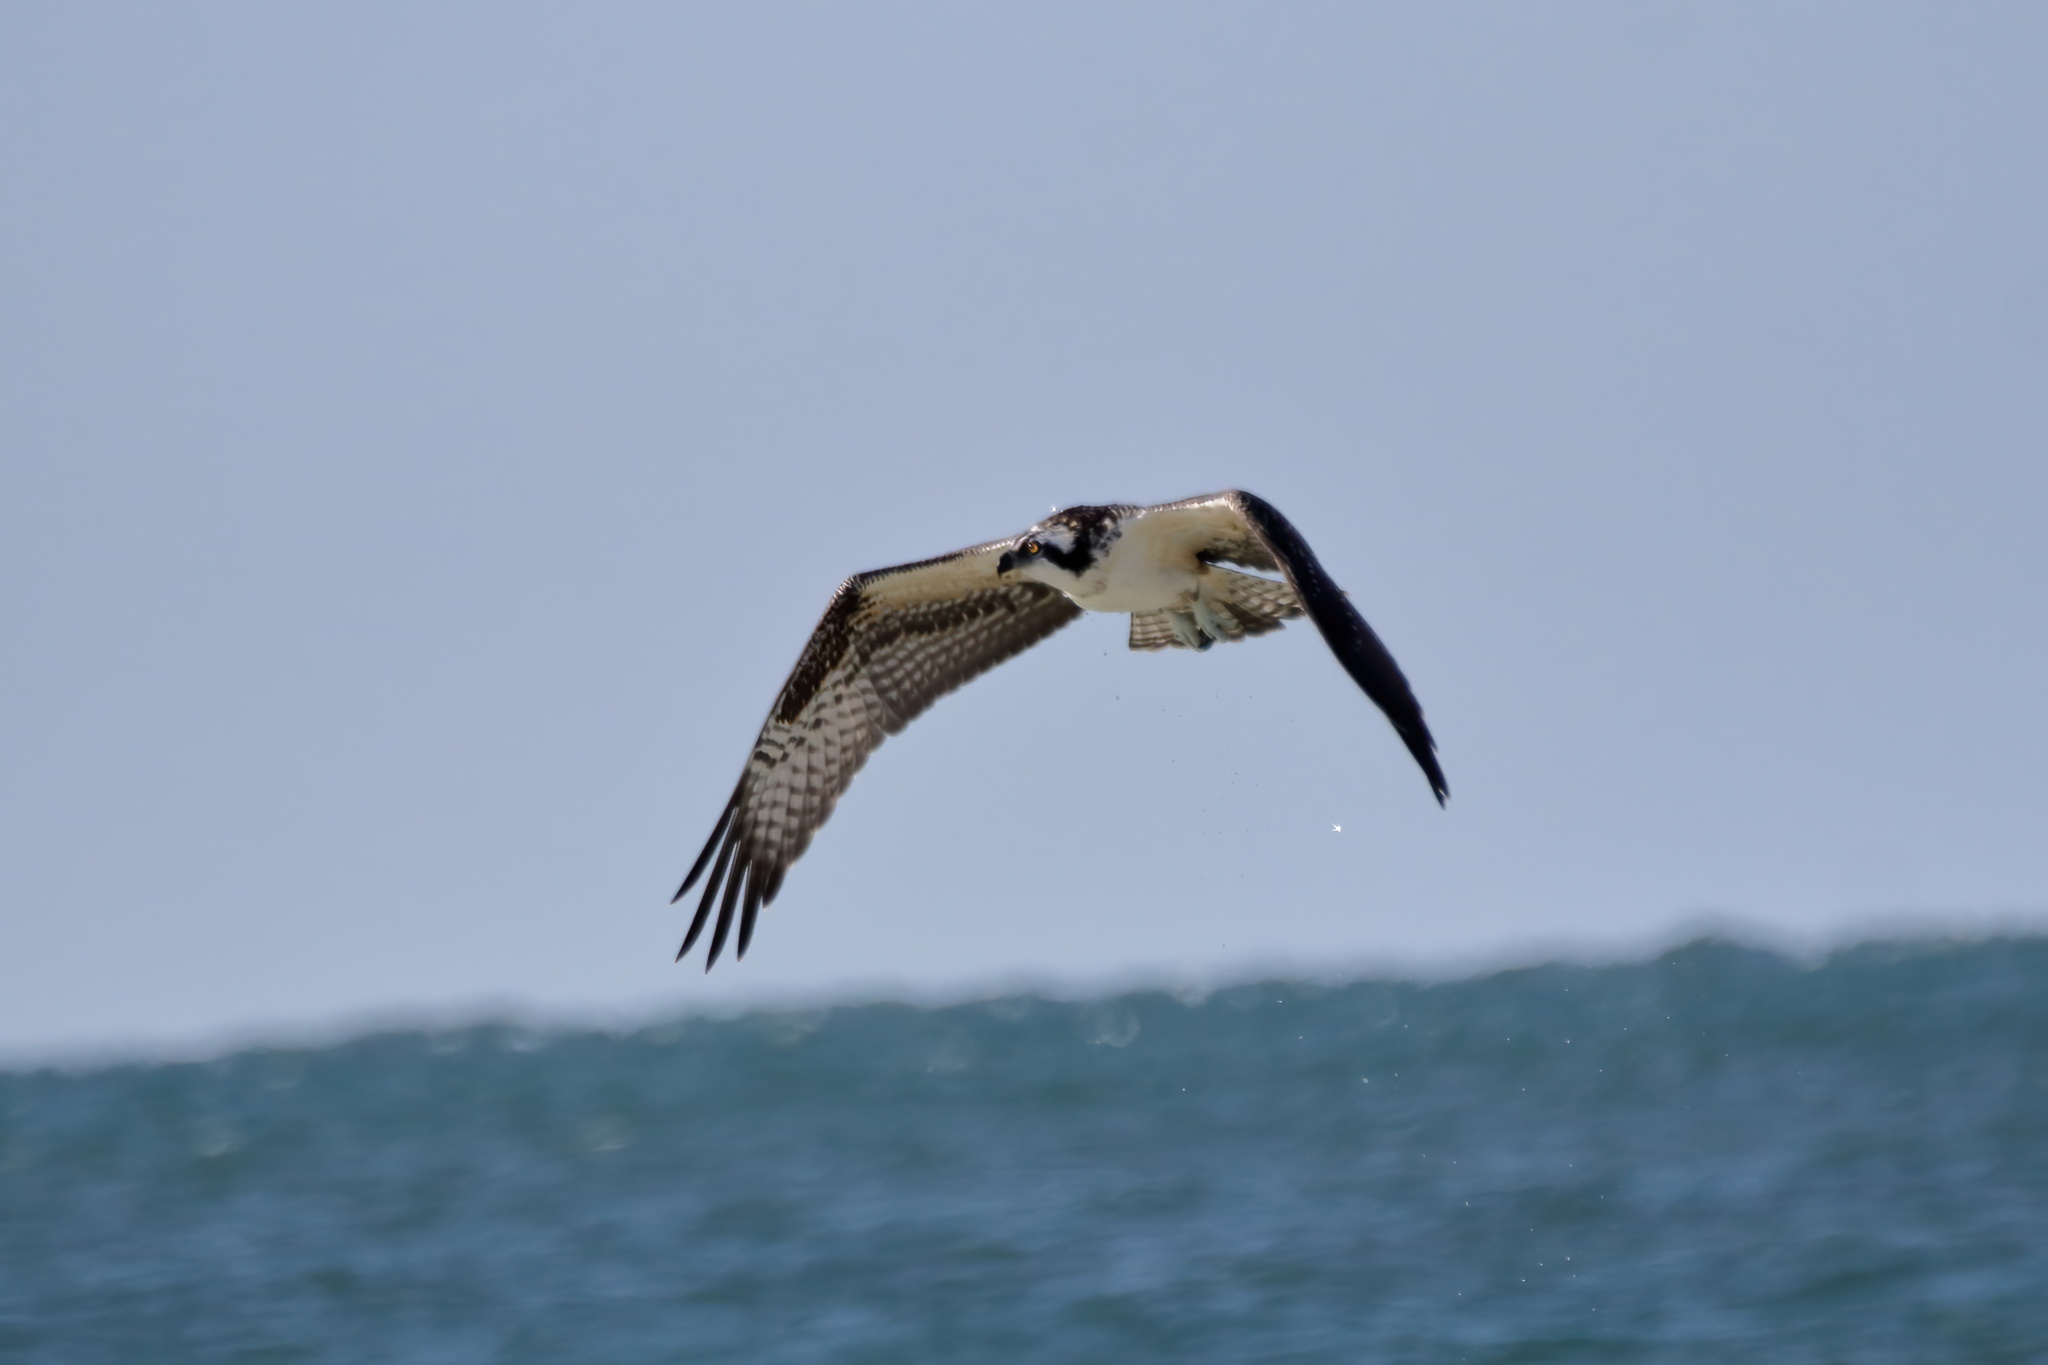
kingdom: Animalia
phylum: Chordata
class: Aves
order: Accipitriformes
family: Pandionidae
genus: Pandion
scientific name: Pandion haliaetus
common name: Osprey
